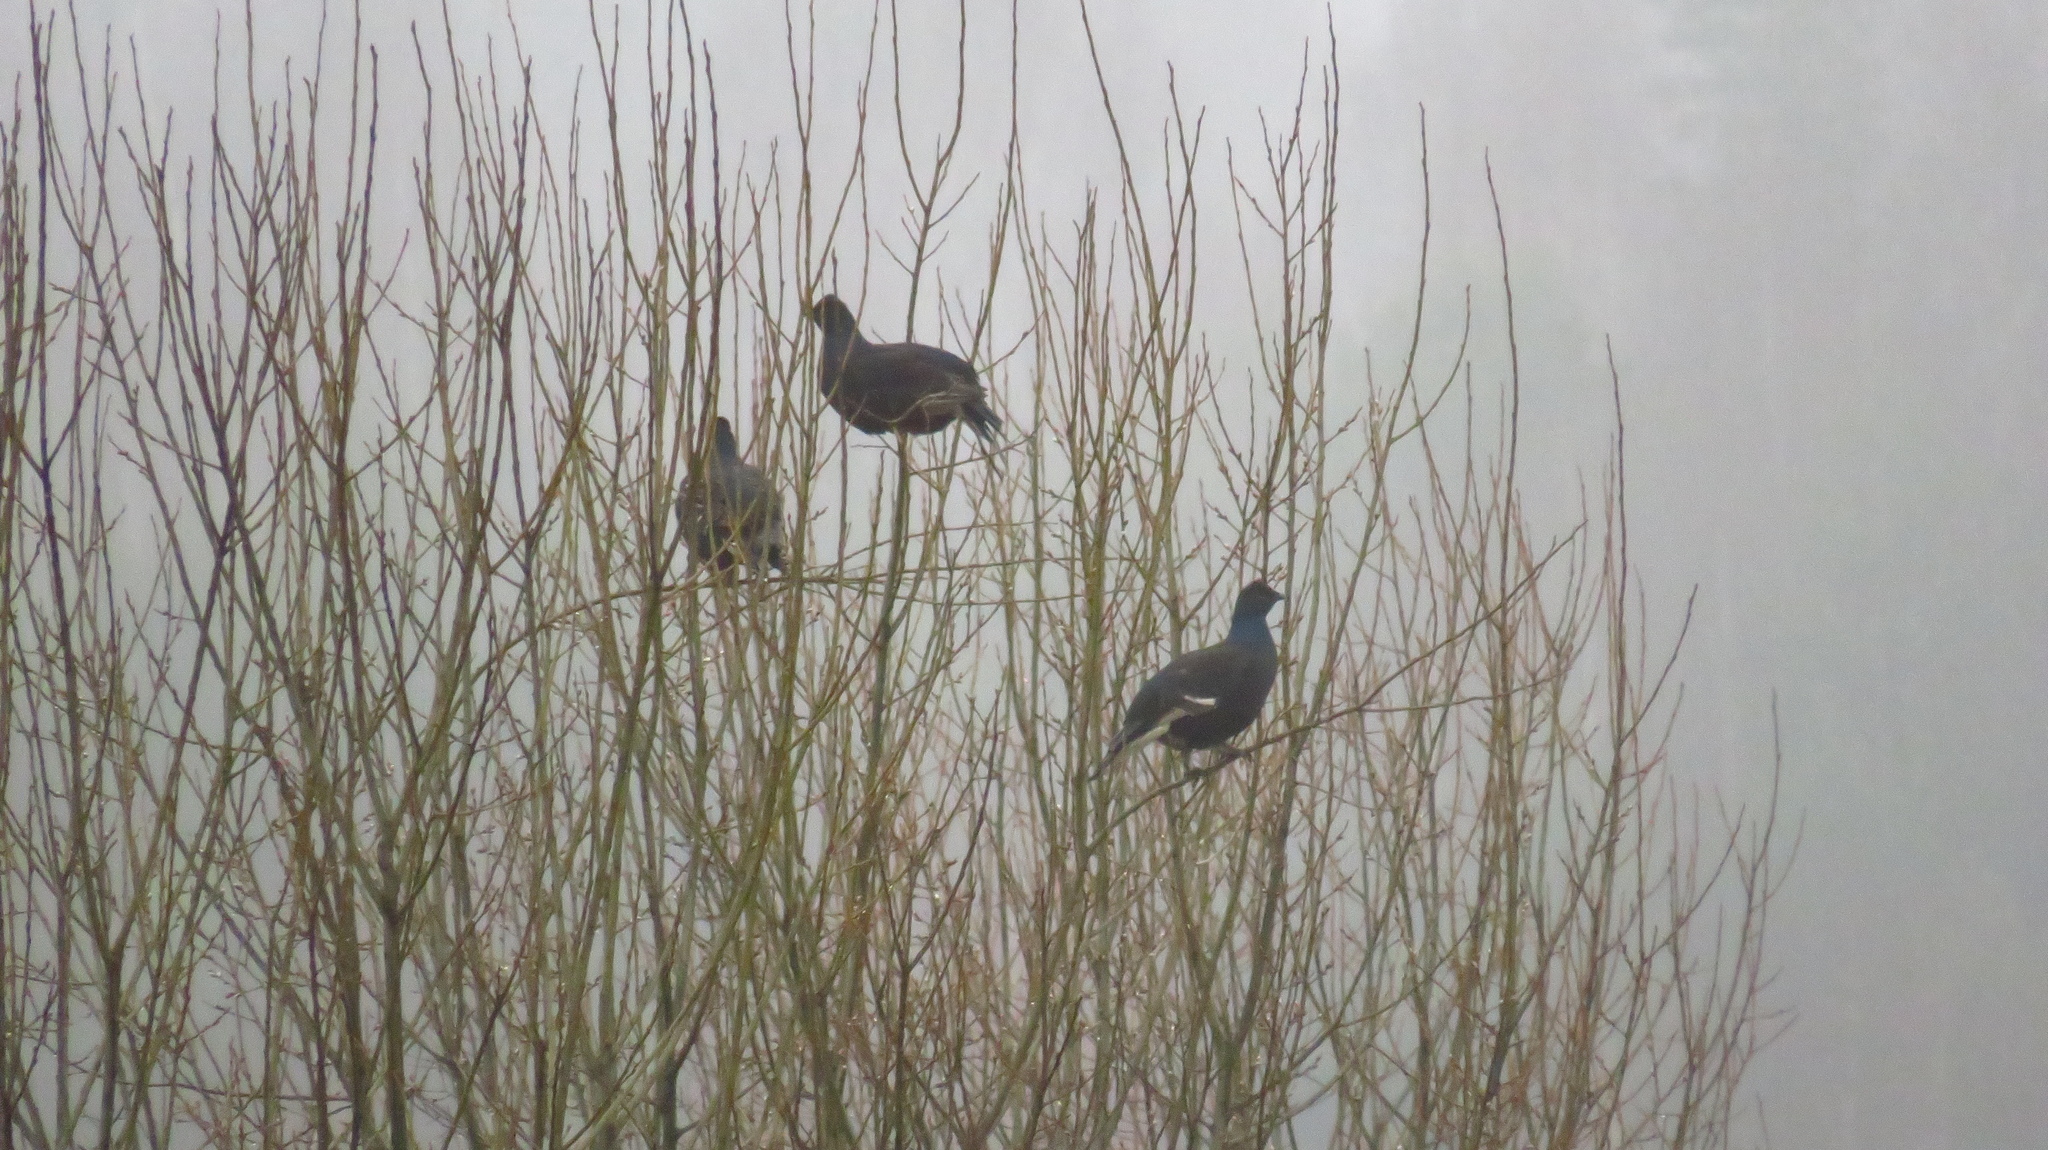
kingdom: Animalia
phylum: Chordata
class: Aves
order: Galliformes
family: Phasianidae
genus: Lyrurus
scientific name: Lyrurus tetrix
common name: Black grouse
